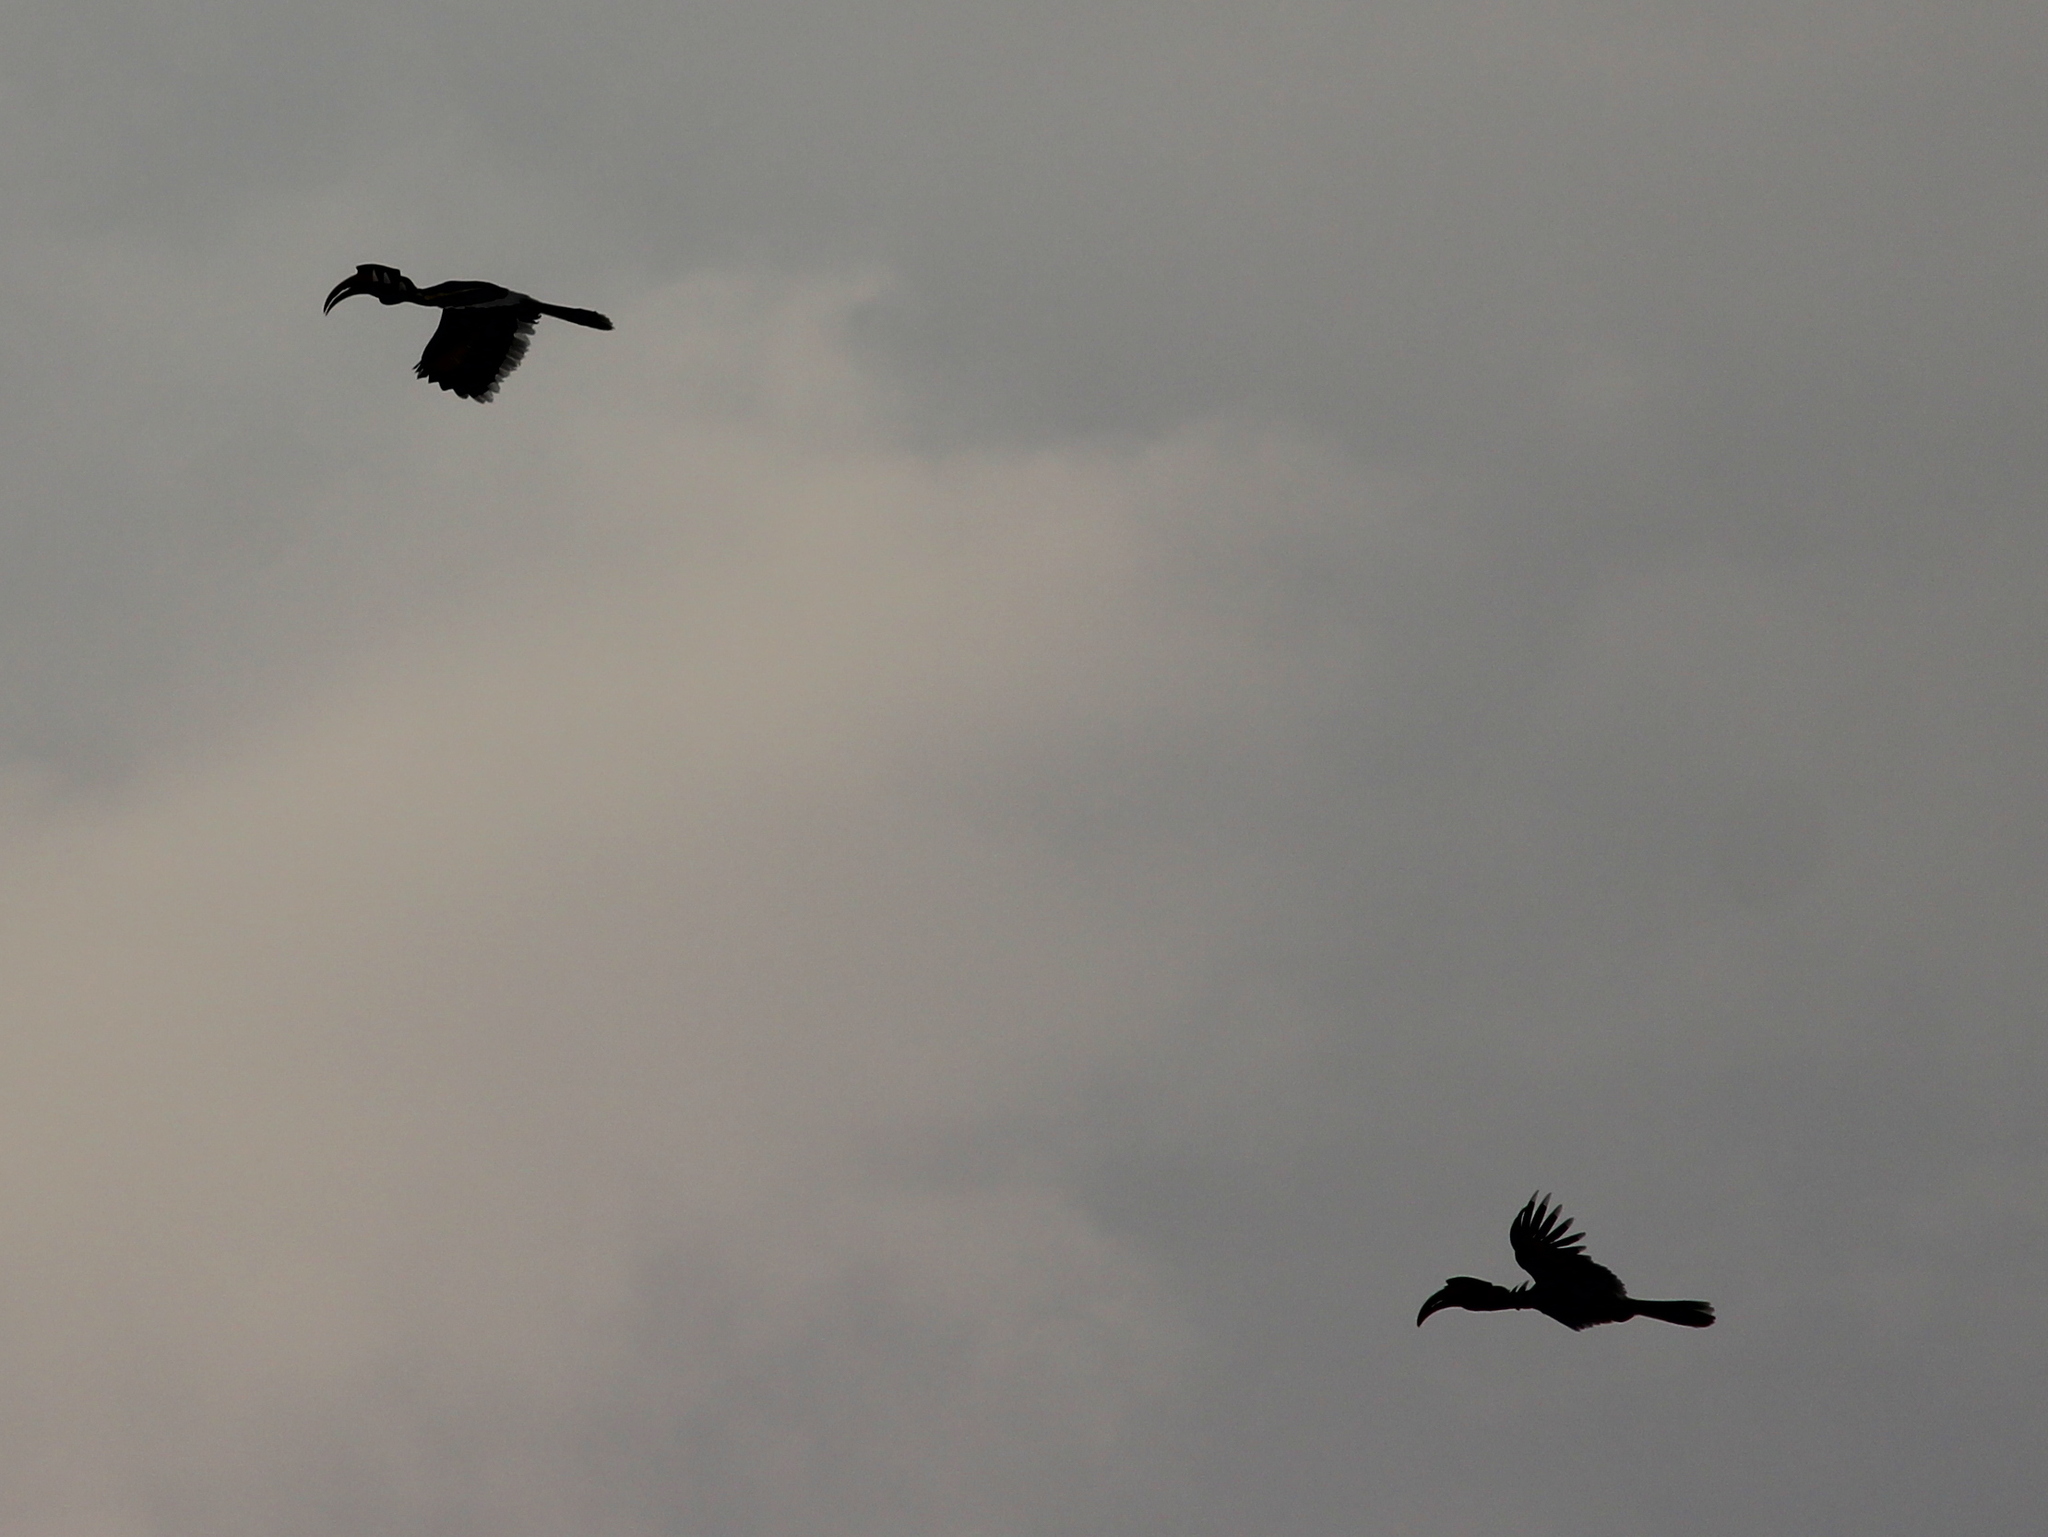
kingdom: Animalia
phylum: Chordata
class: Aves
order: Bucerotiformes
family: Bucerotidae
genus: Buceros
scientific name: Buceros bicornis
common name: Great hornbill
